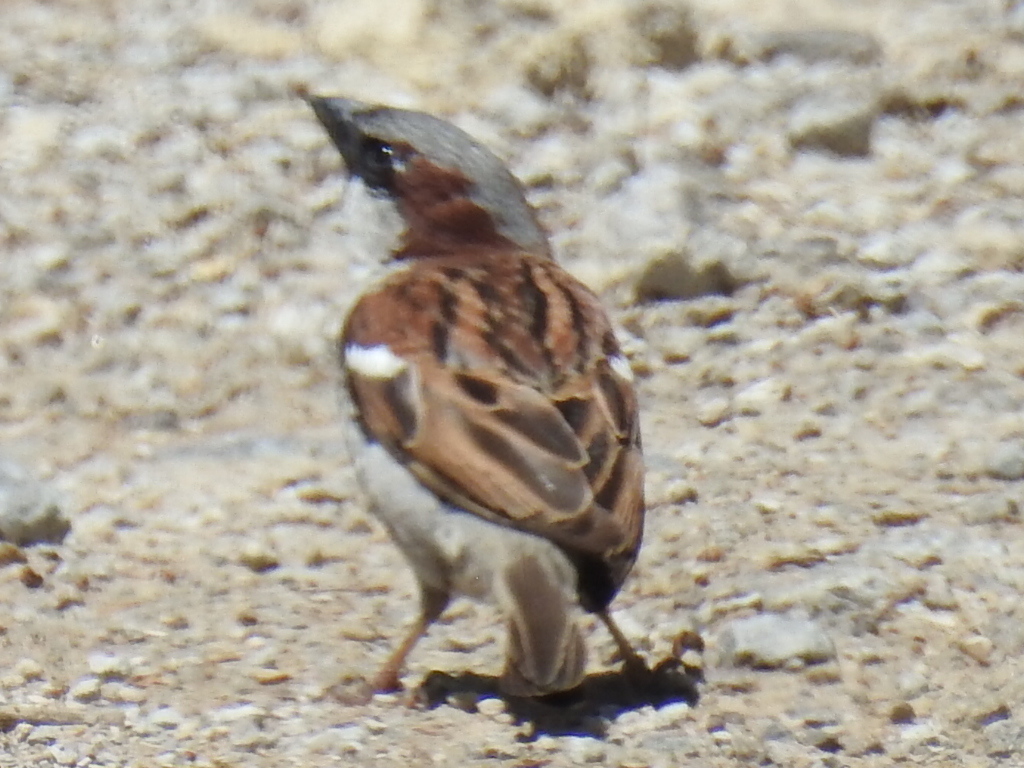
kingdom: Animalia
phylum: Chordata
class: Aves
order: Passeriformes
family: Passeridae
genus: Passer
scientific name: Passer domesticus
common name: House sparrow
